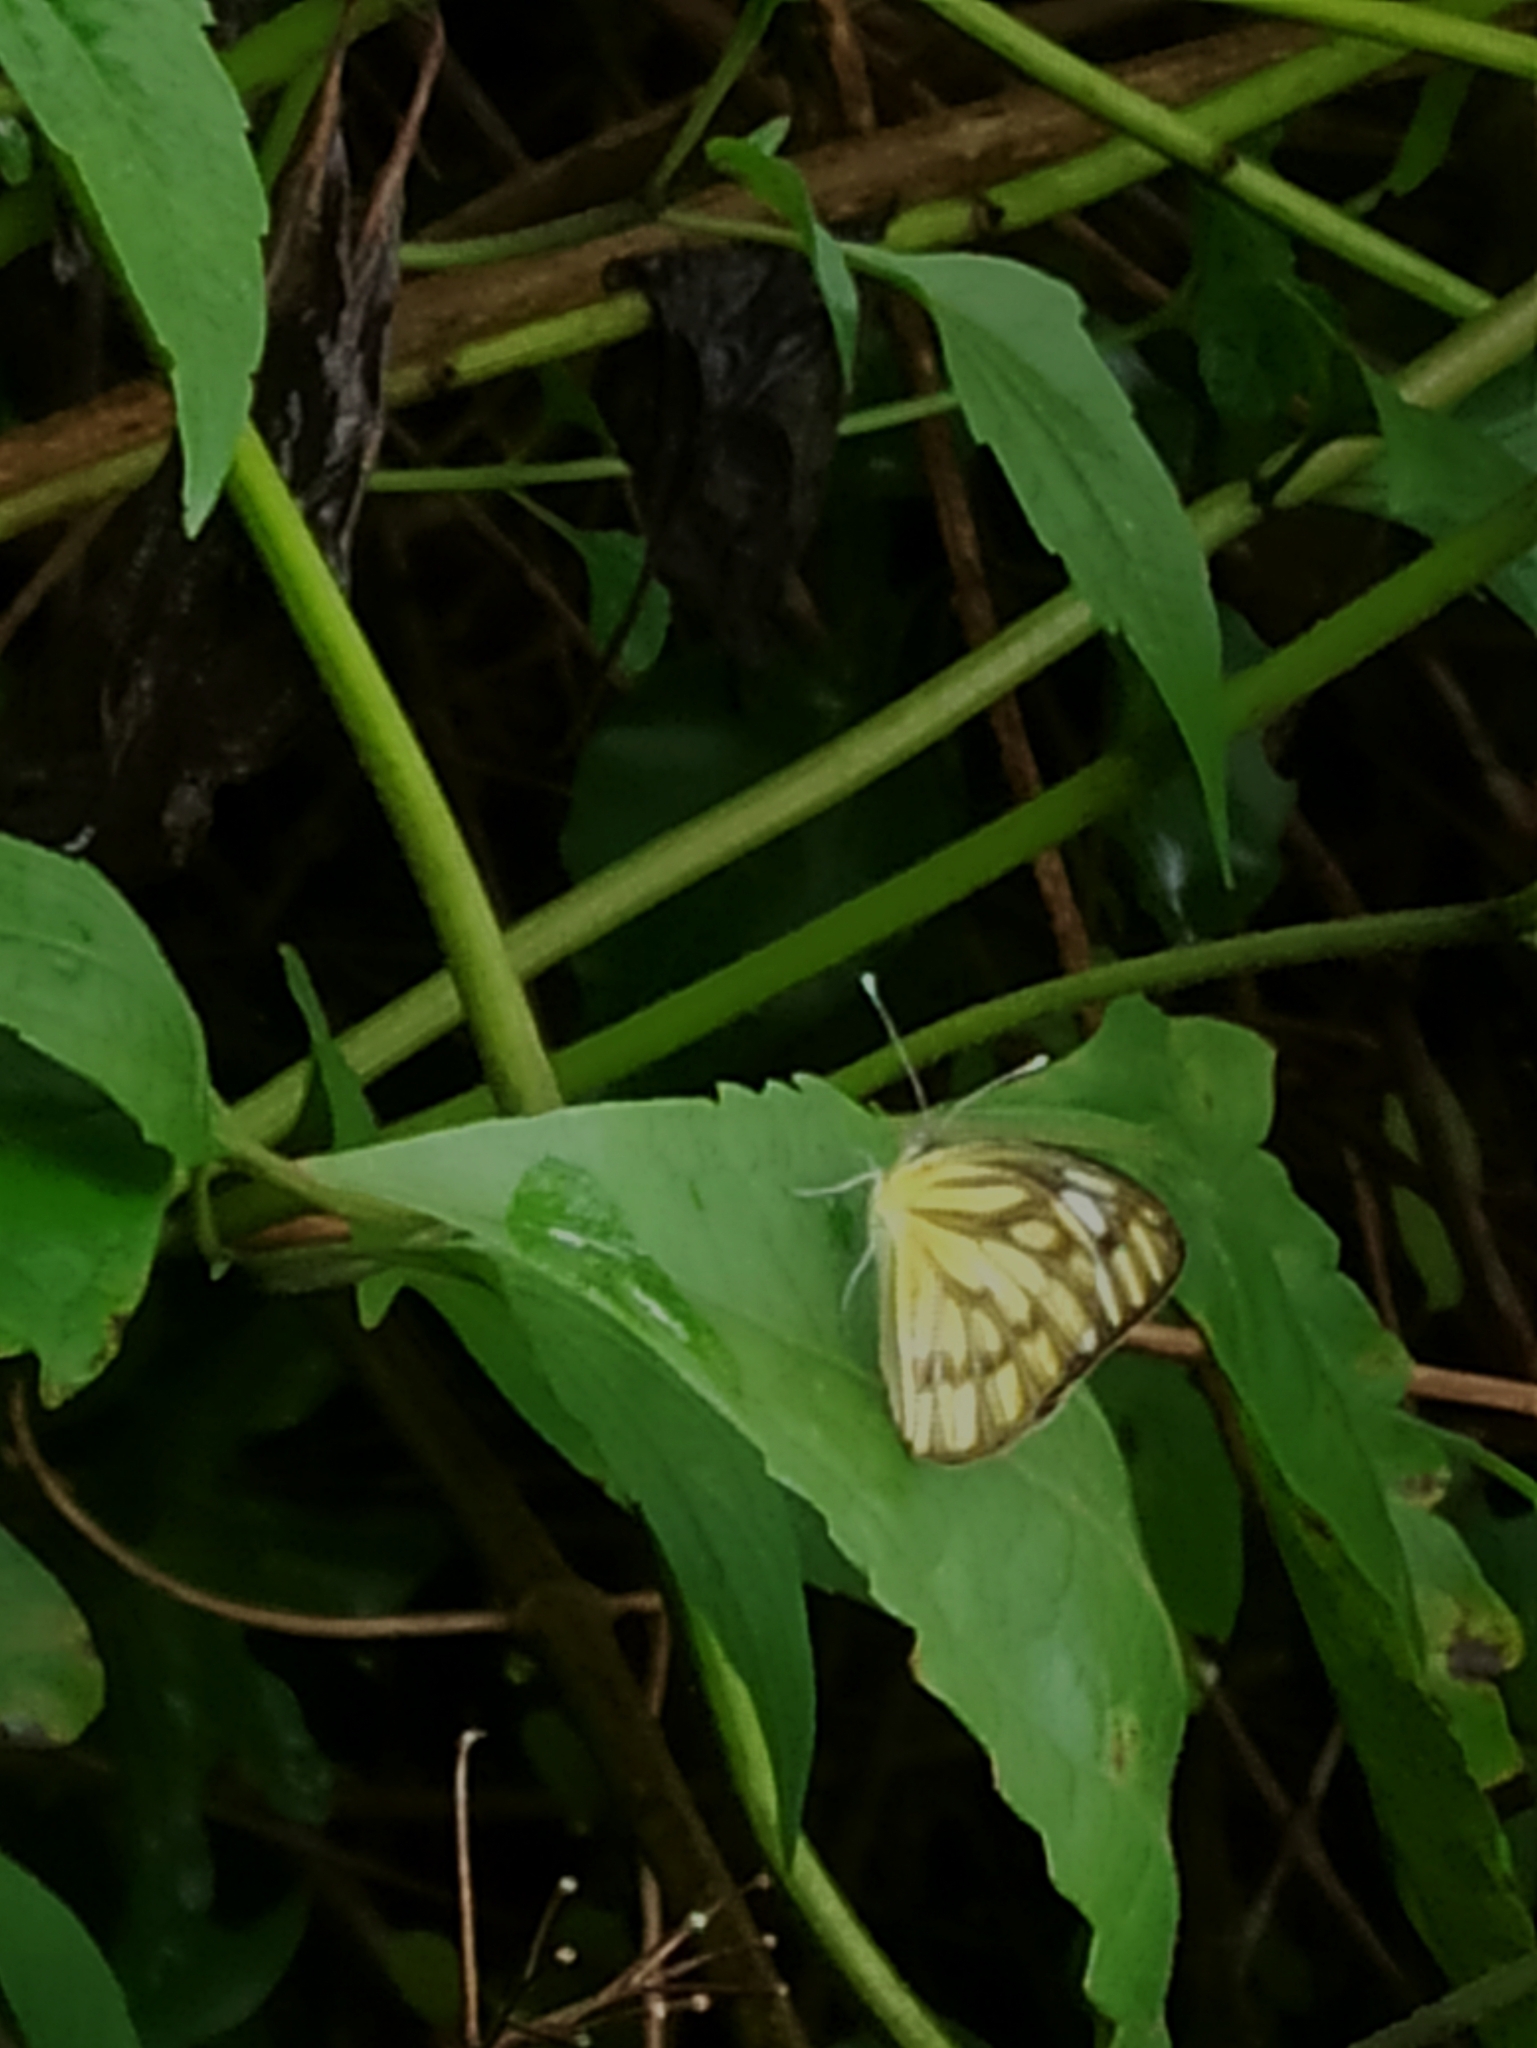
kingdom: Animalia
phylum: Arthropoda
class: Insecta
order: Lepidoptera
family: Pieridae
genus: Cepora
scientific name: Cepora nerissa
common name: Common gull
